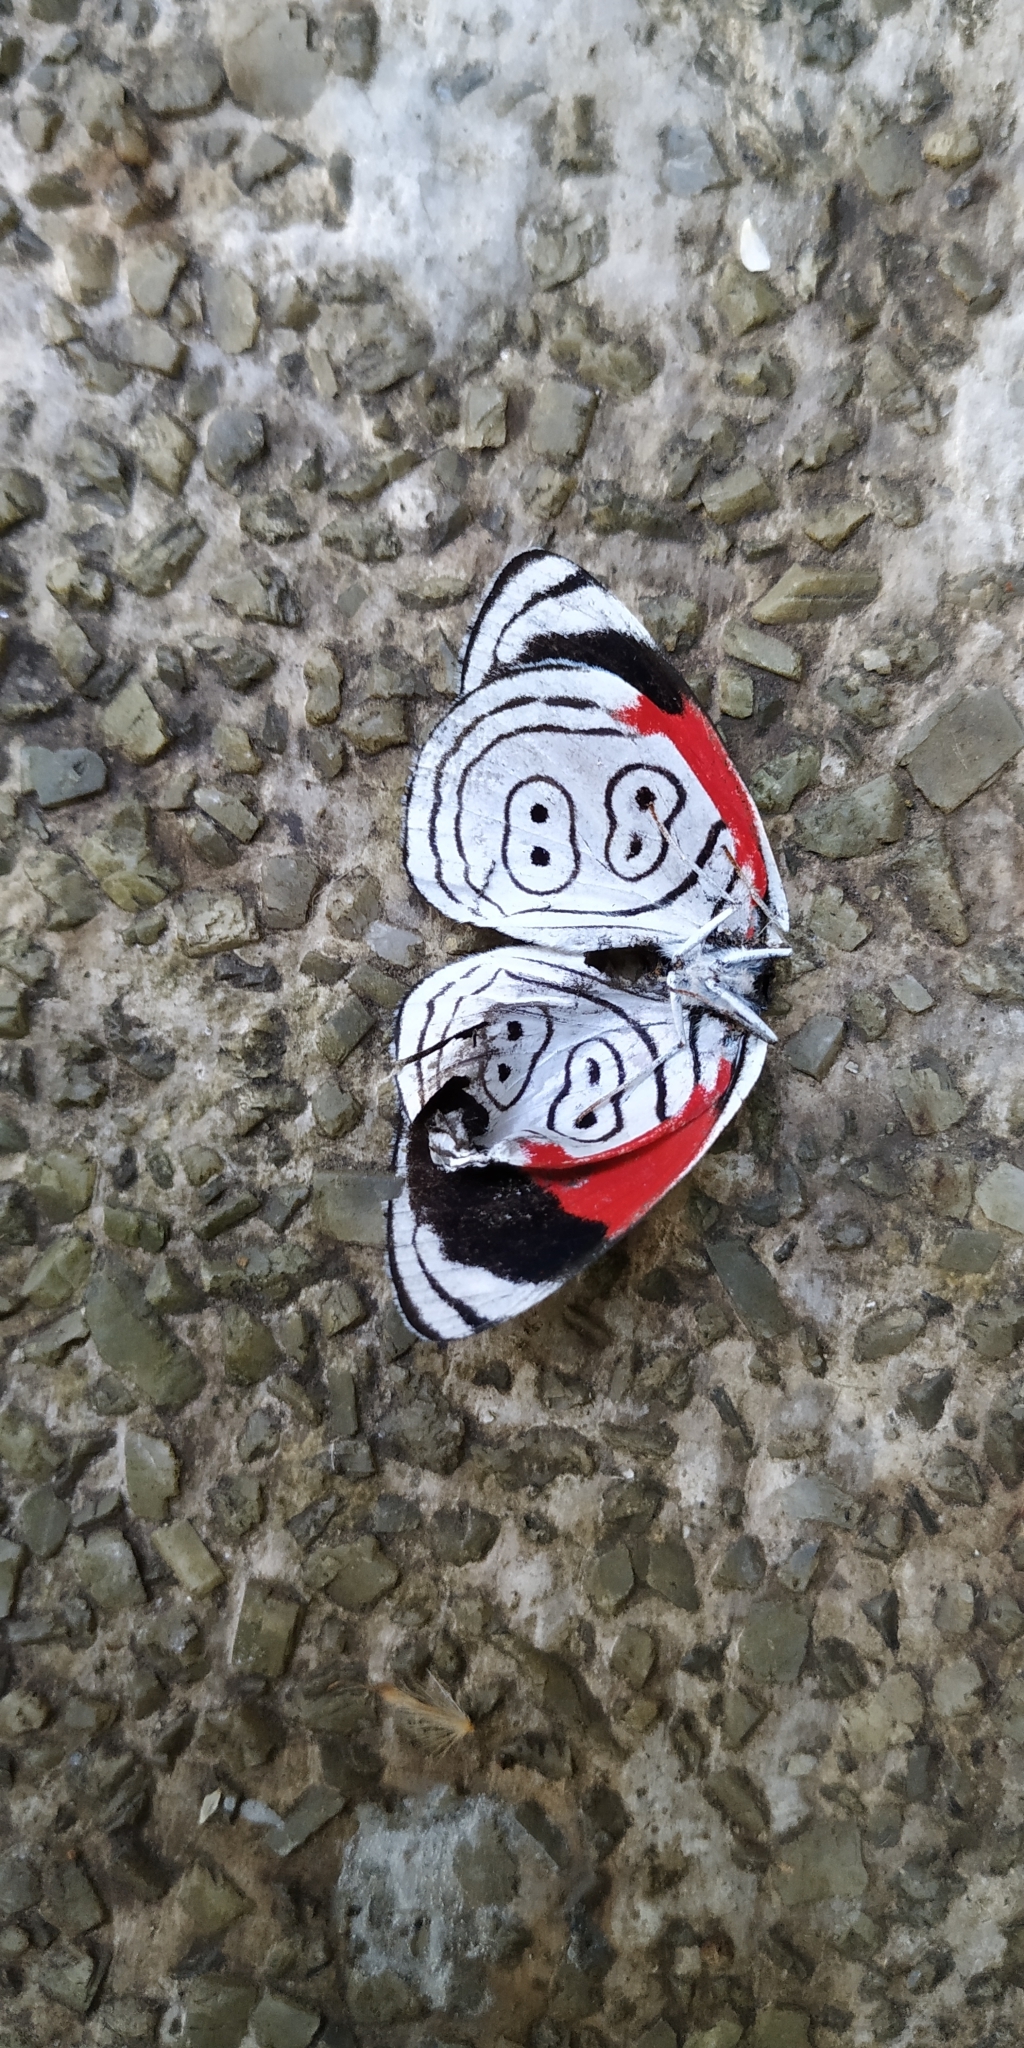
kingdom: Animalia
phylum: Arthropoda
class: Insecta
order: Lepidoptera
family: Nymphalidae
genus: Diaethria
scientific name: Diaethria anna
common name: Anna’s eighty-eight
